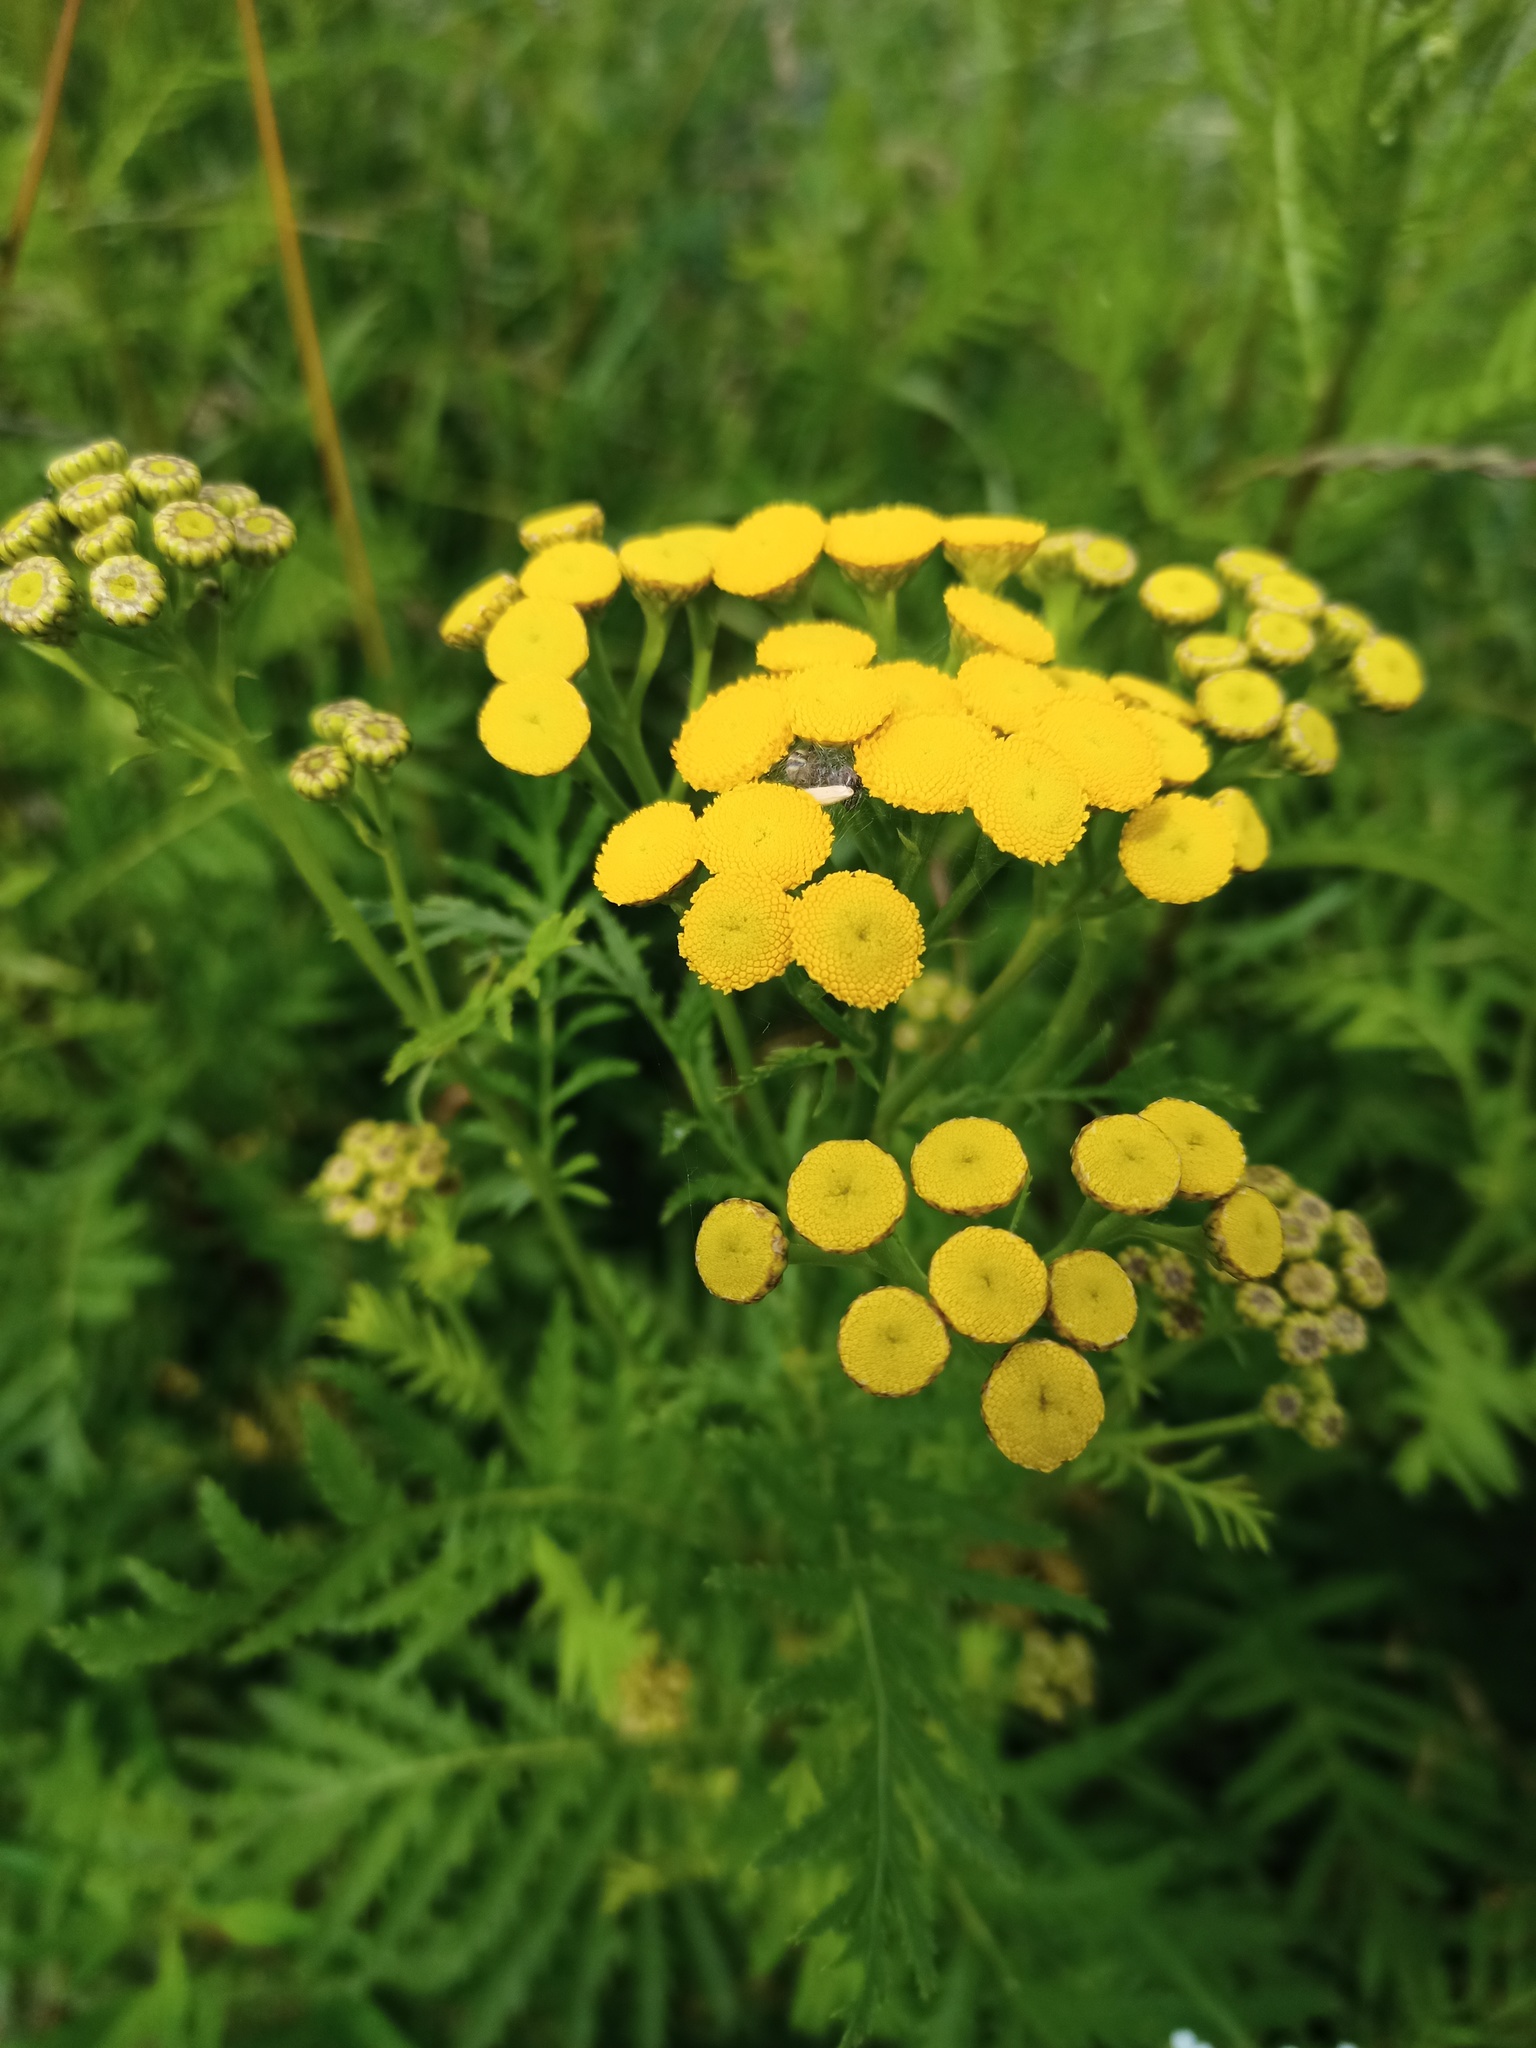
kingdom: Plantae
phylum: Tracheophyta
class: Magnoliopsida
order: Asterales
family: Asteraceae
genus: Tanacetum
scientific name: Tanacetum vulgare
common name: Common tansy
